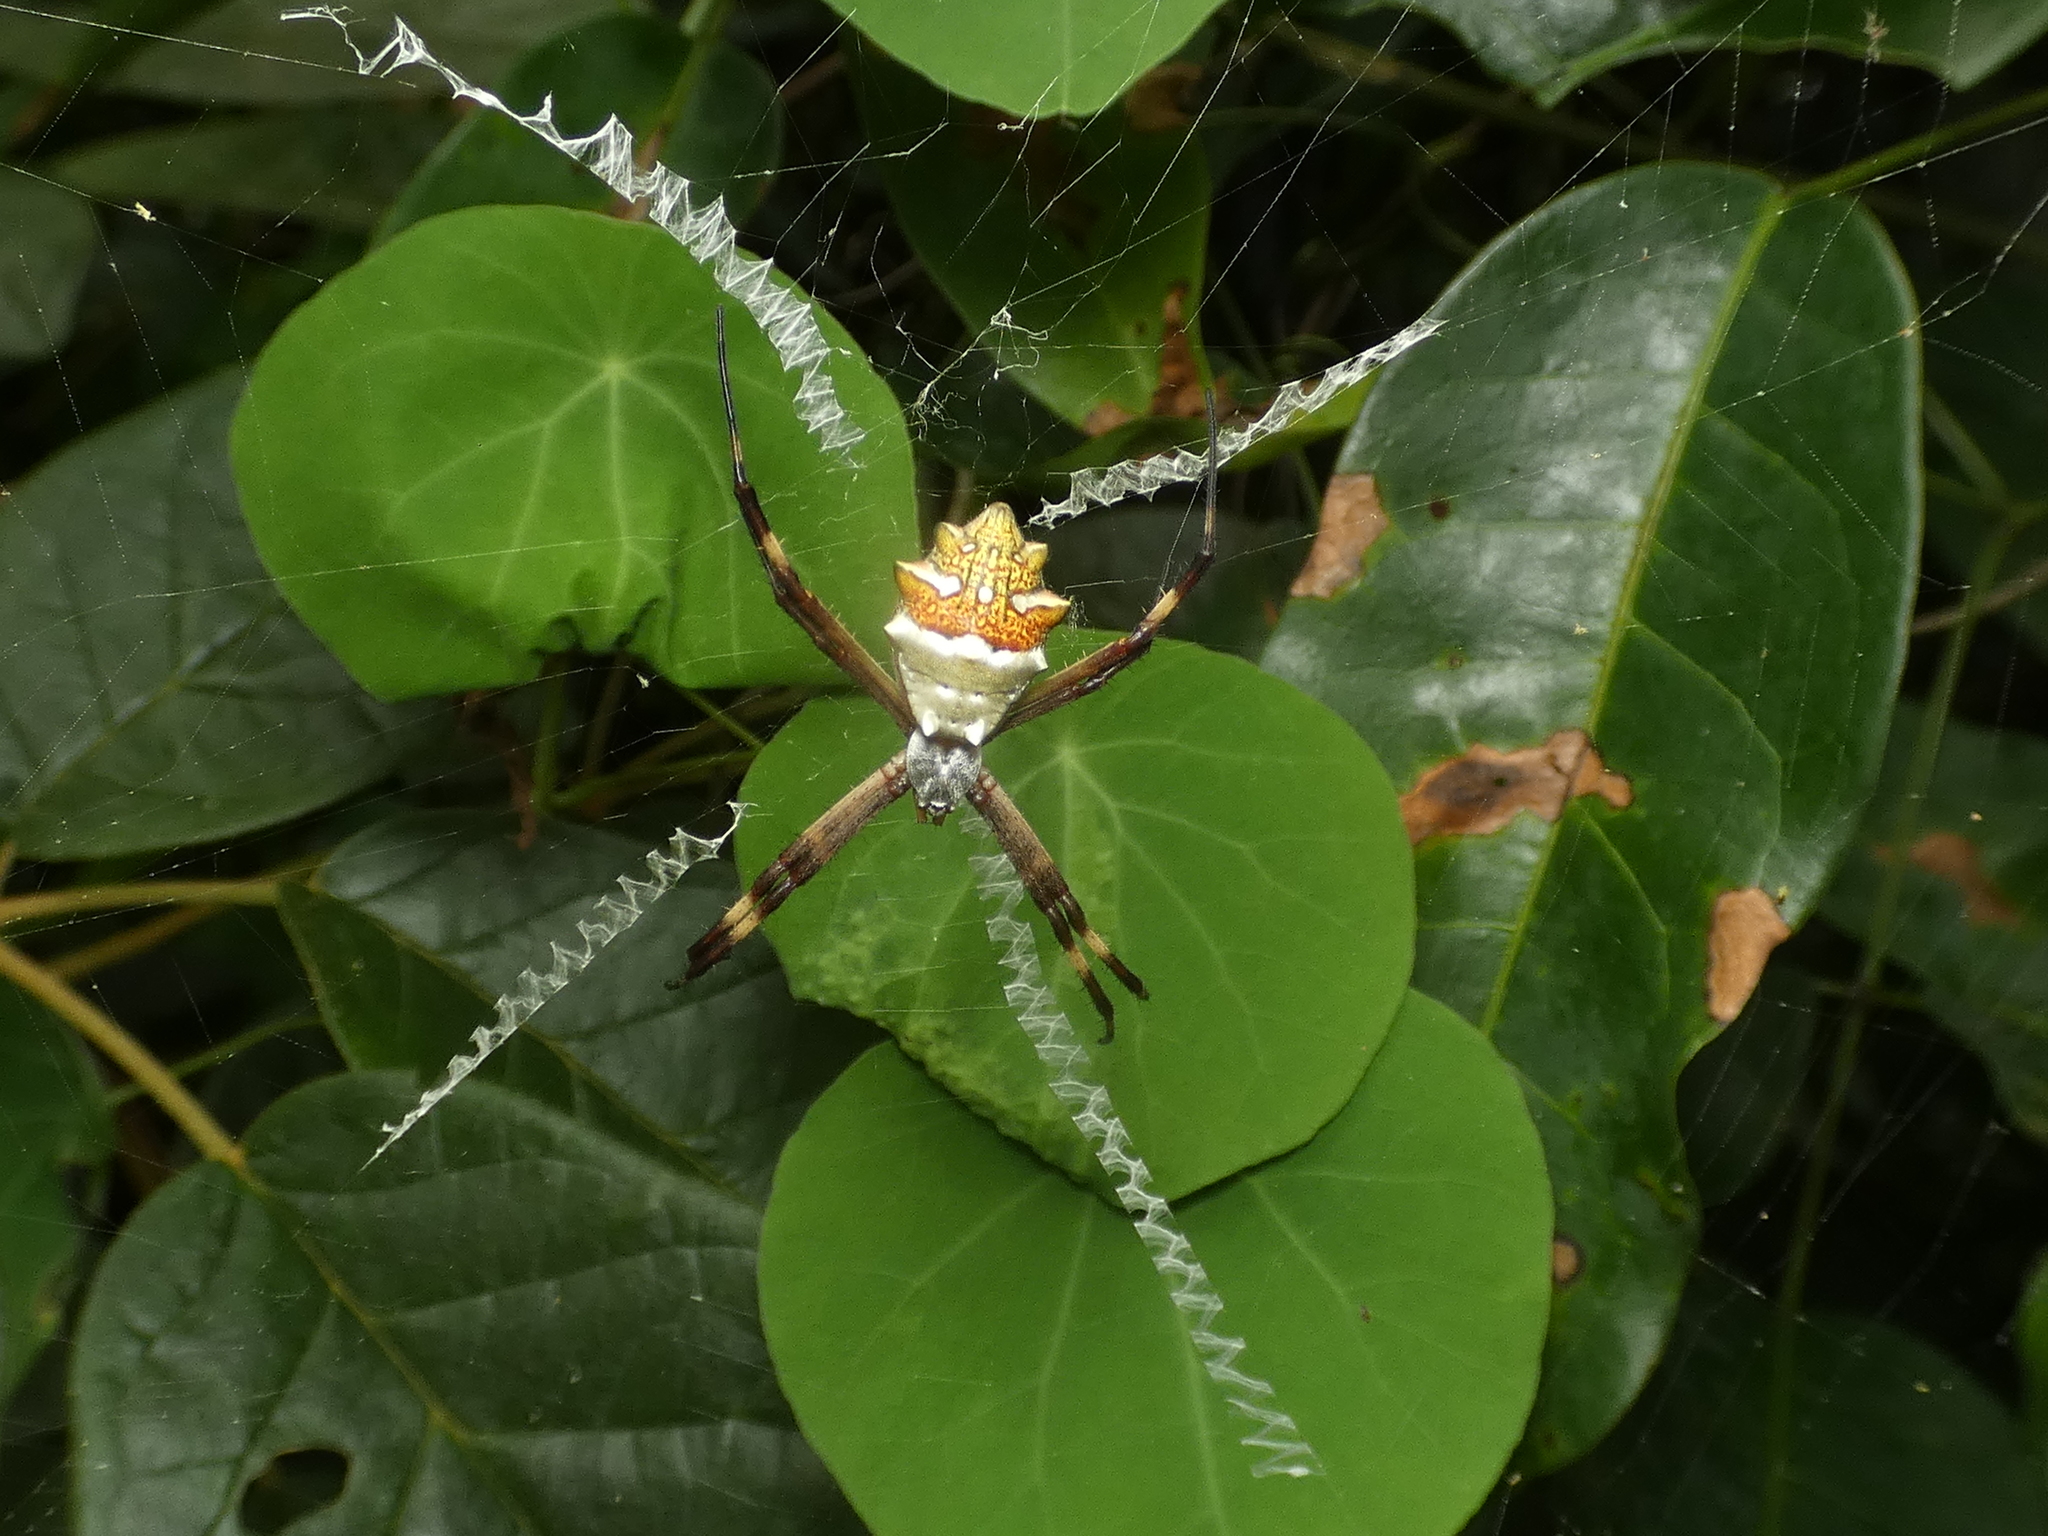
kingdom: Animalia
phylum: Arthropoda
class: Arachnida
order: Araneae
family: Araneidae
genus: Argiope
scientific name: Argiope argentata
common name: Orb weavers
